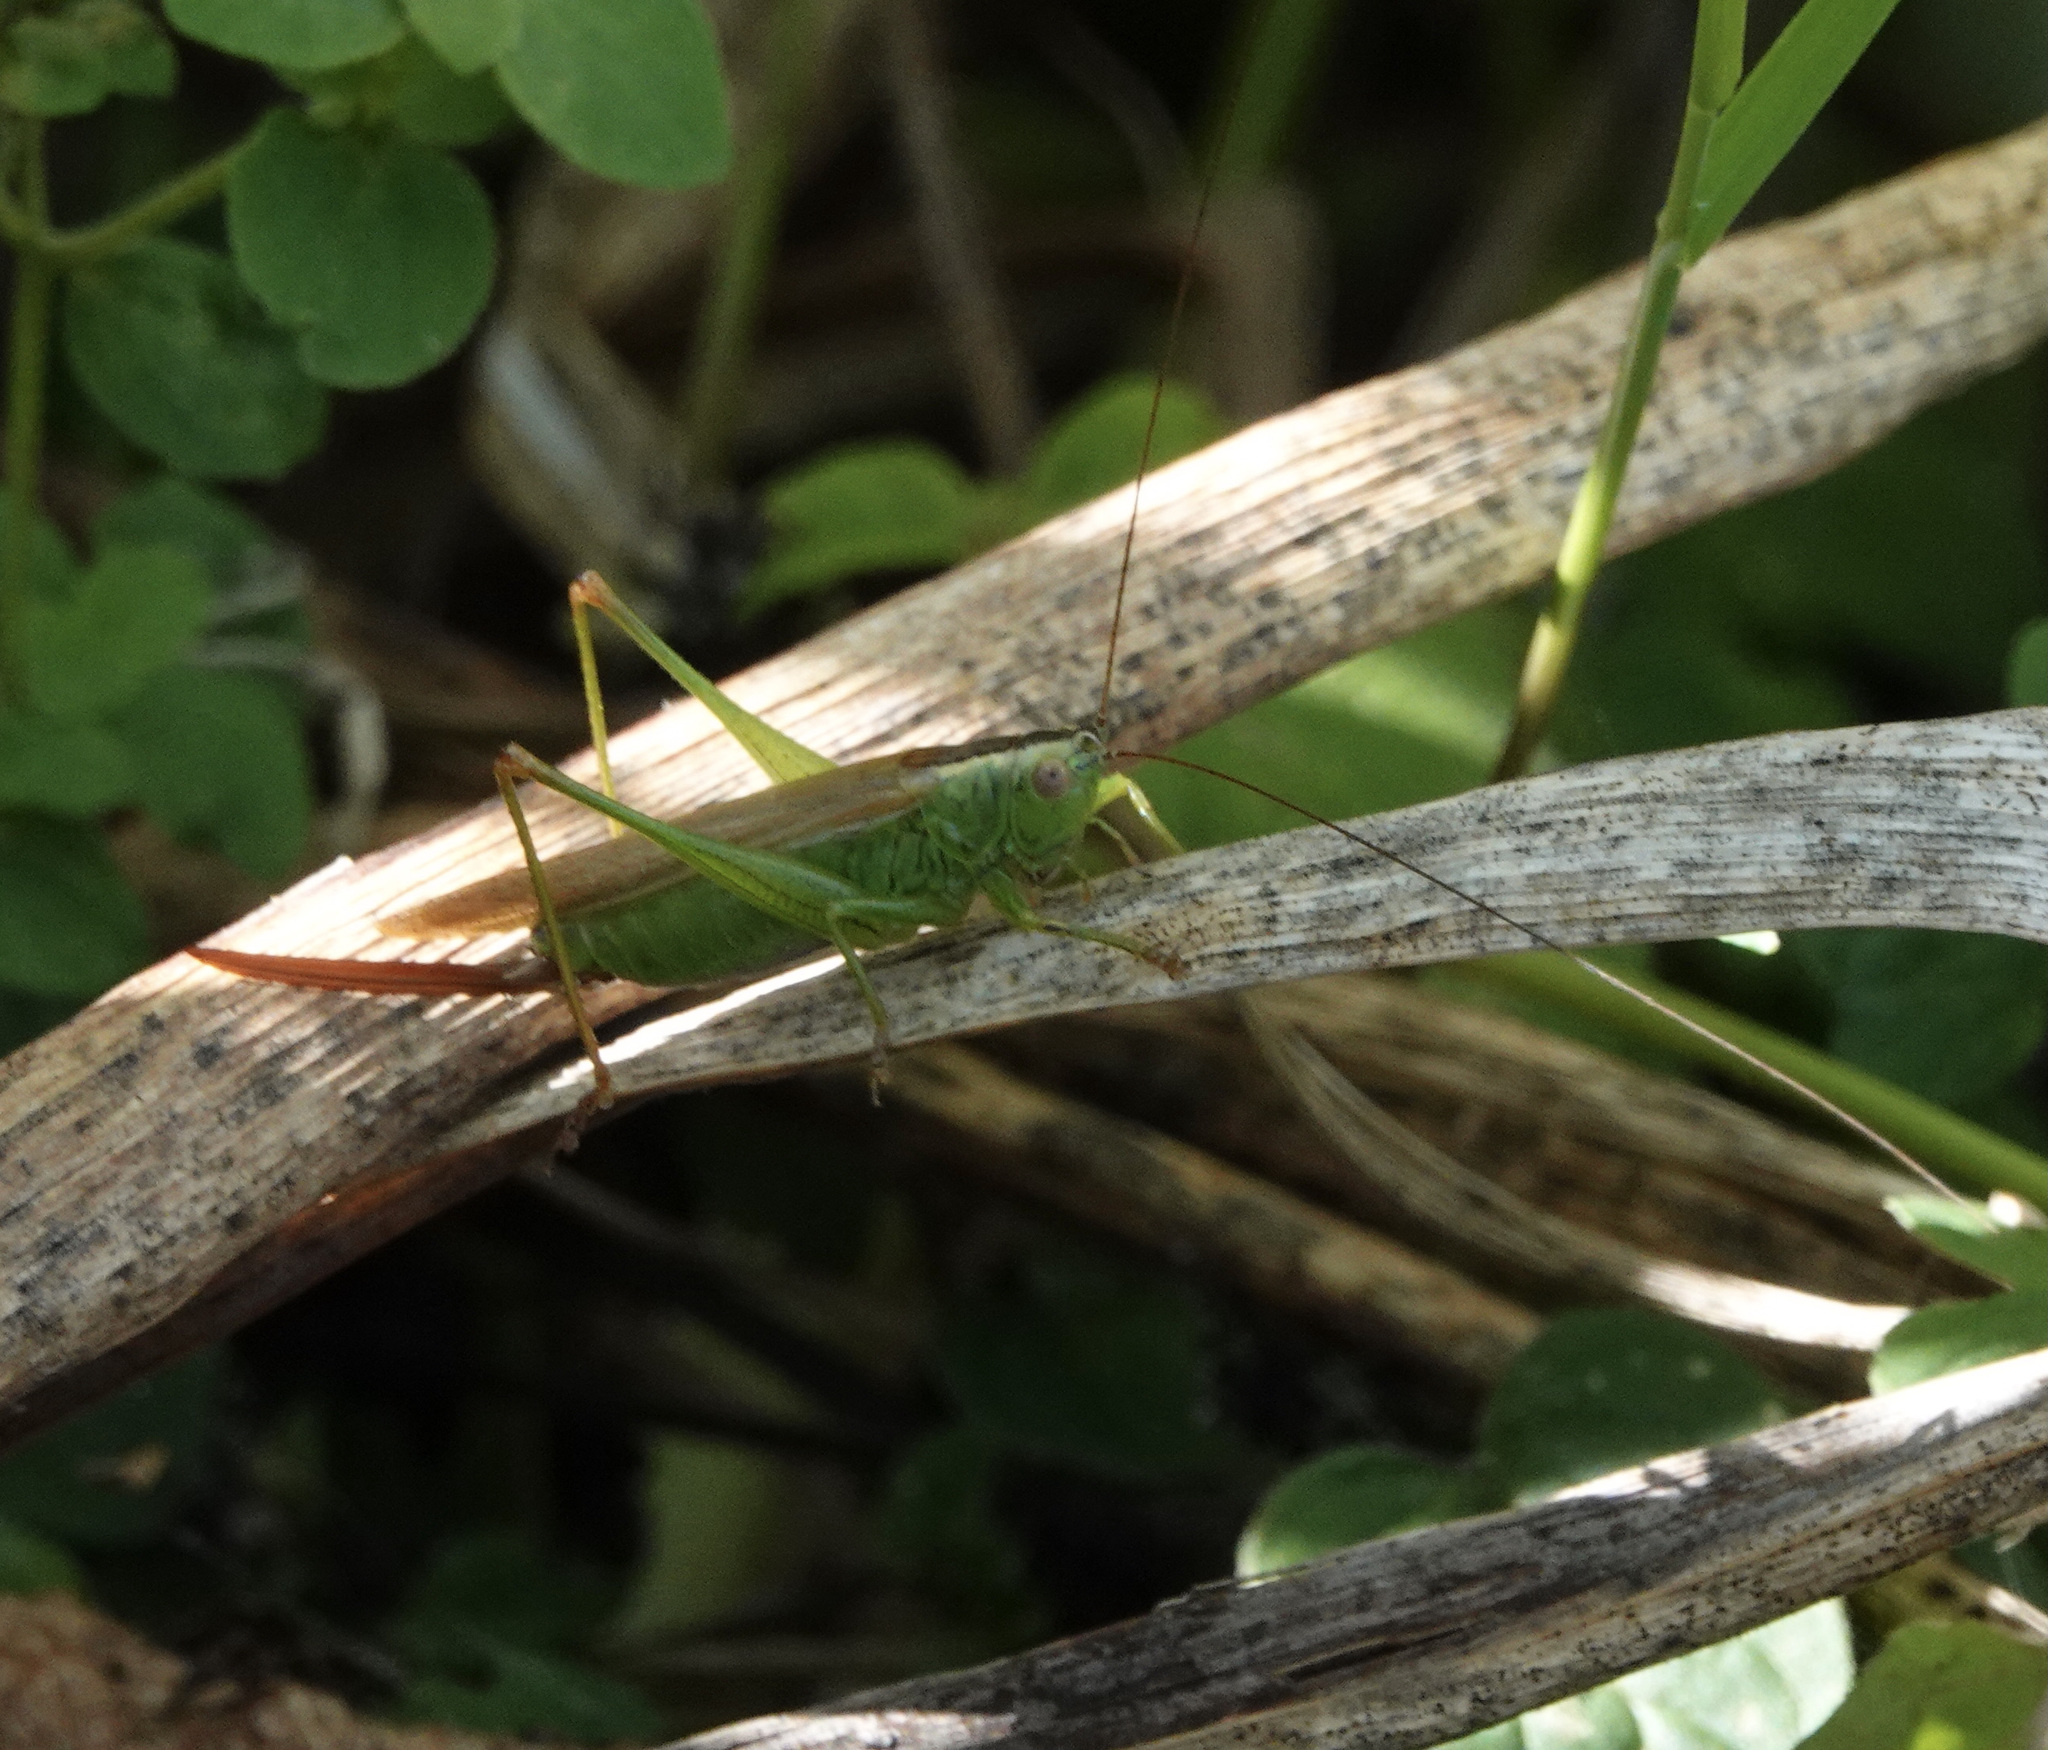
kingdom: Animalia
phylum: Arthropoda
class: Insecta
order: Orthoptera
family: Tettigoniidae
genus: Conocephalus
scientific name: Conocephalus fuscus
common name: Long-winged conehead
